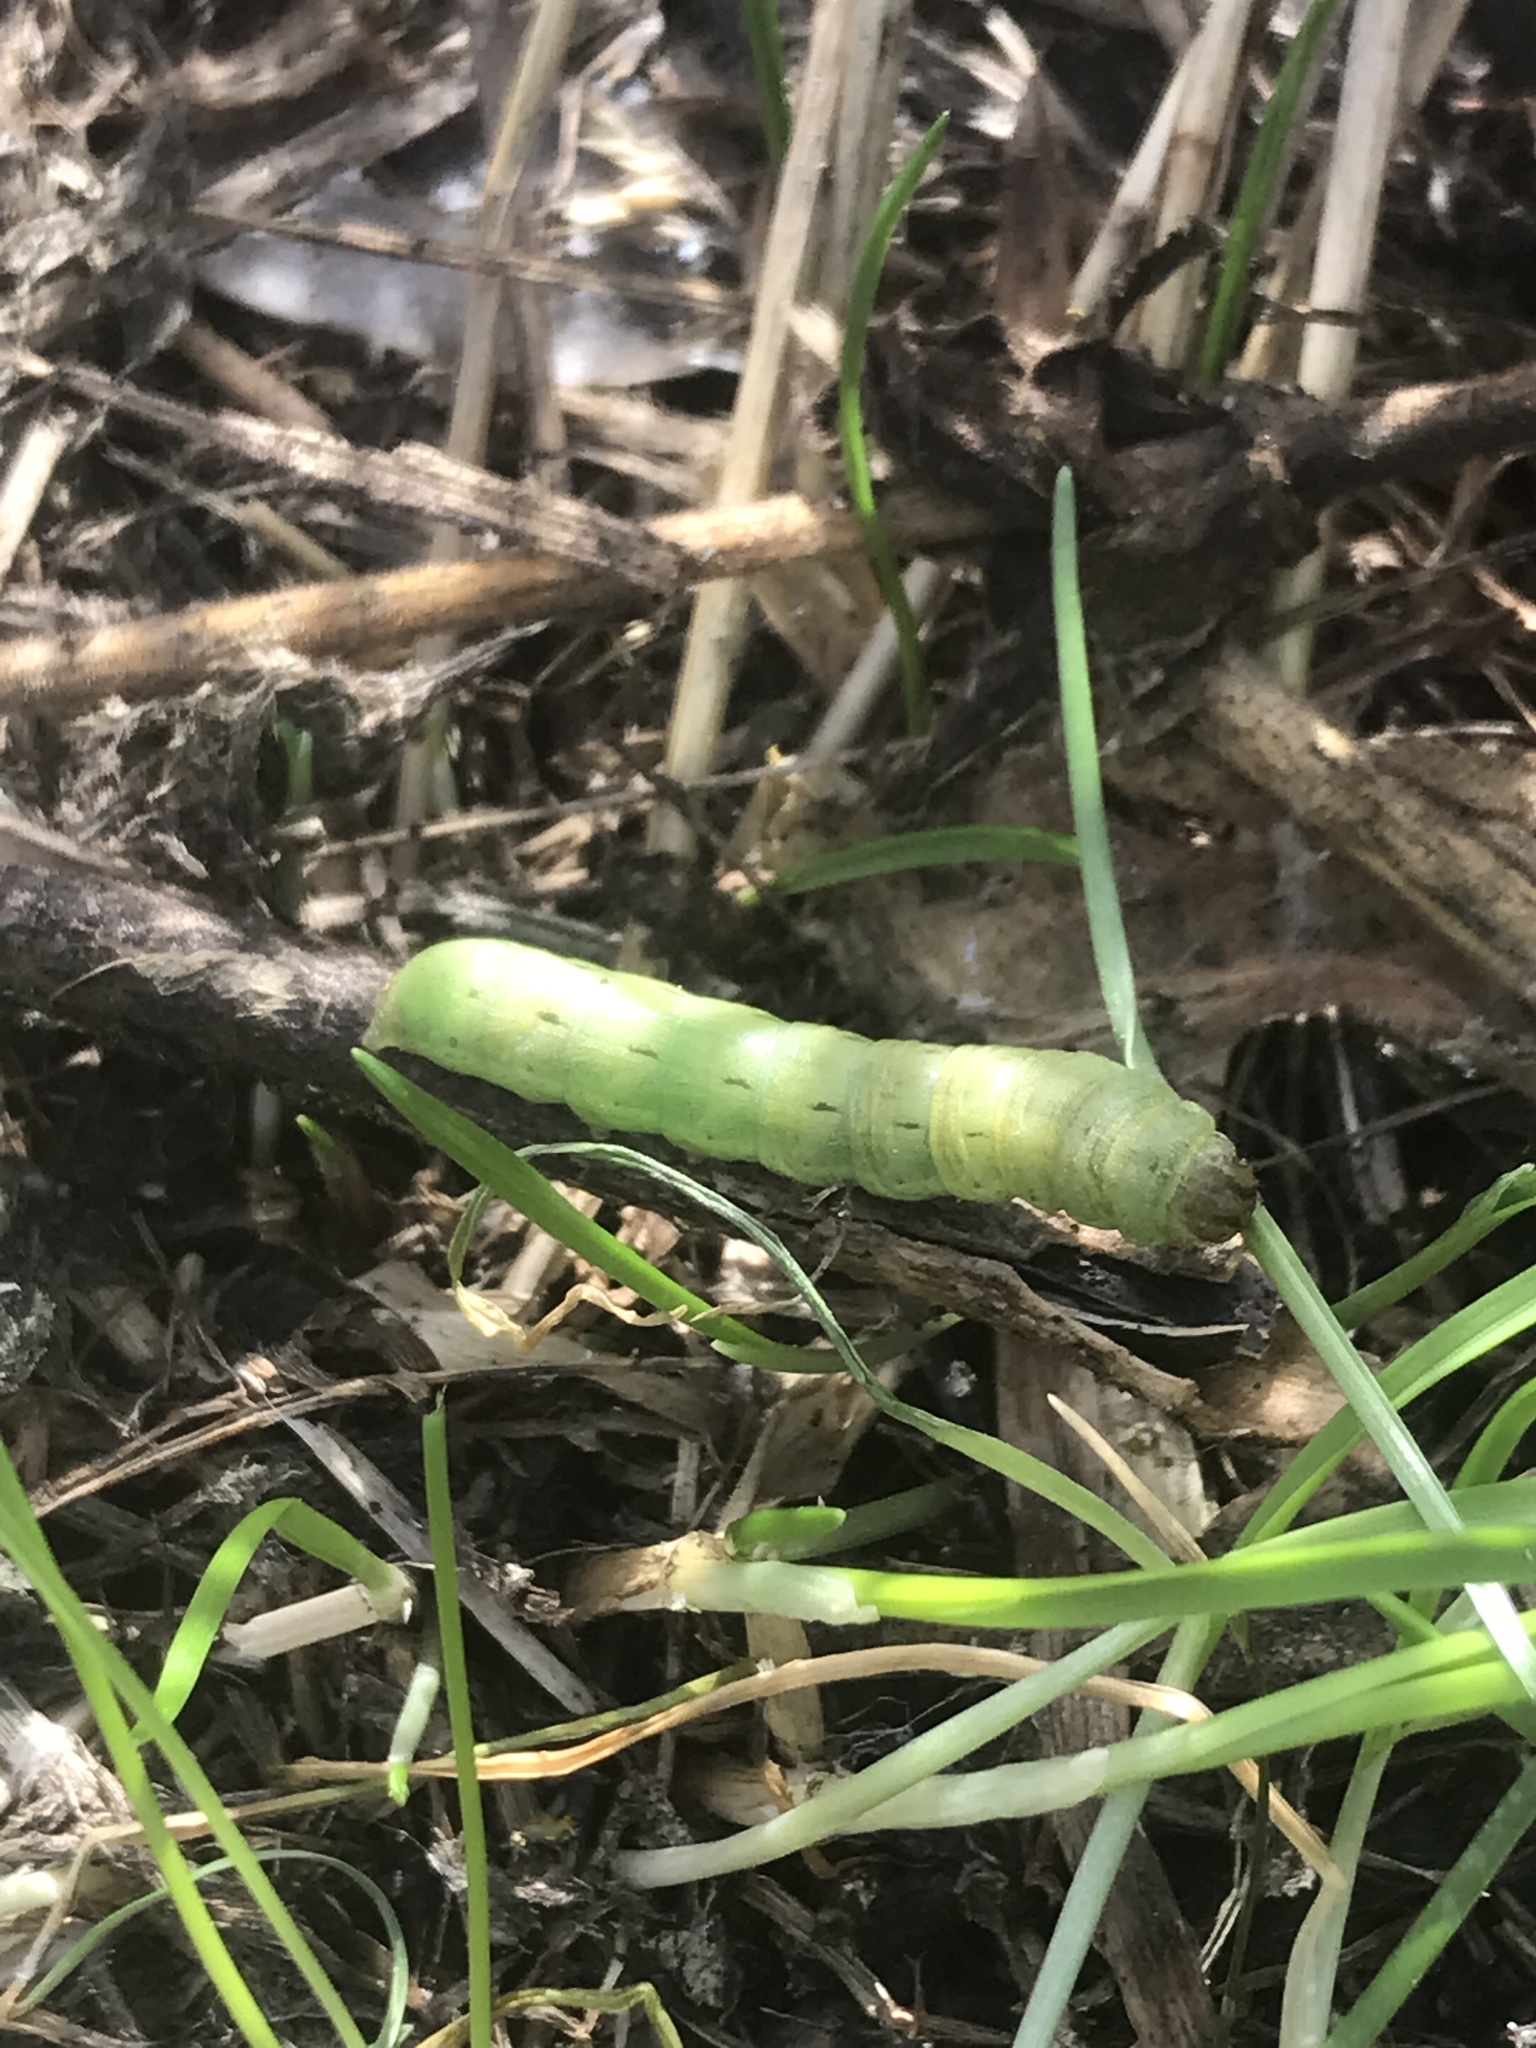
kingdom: Animalia
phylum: Arthropoda
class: Insecta
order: Lepidoptera
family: Noctuidae
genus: Noctua
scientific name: Noctua pronuba
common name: Large yellow underwing
